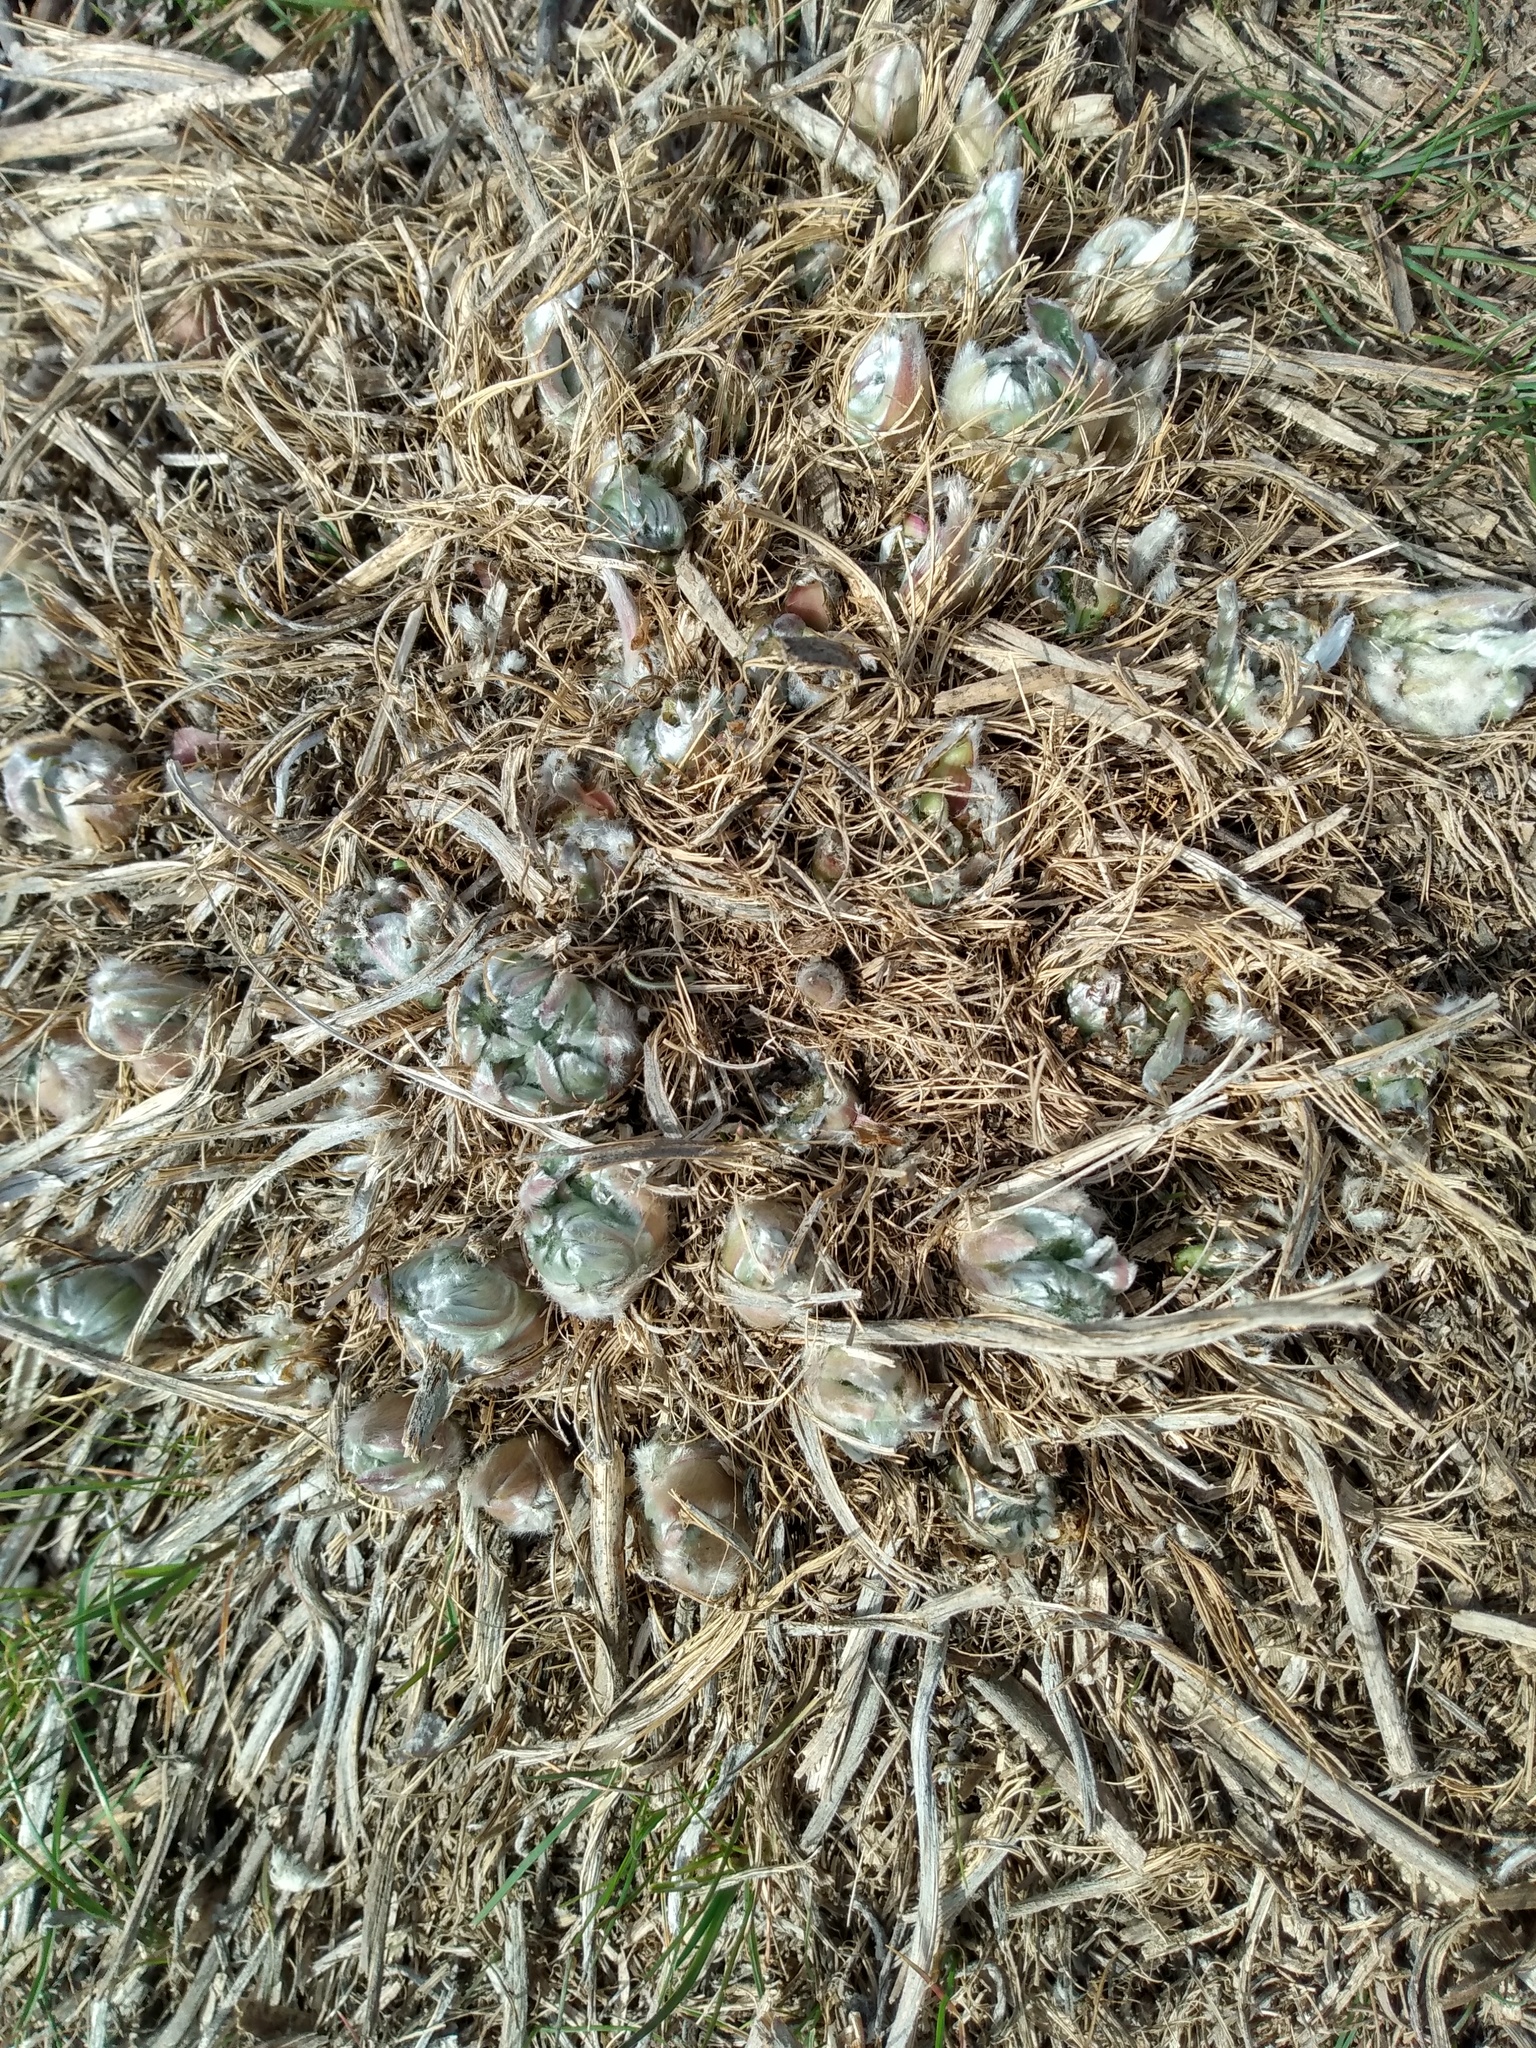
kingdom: Plantae
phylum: Tracheophyta
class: Magnoliopsida
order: Asterales
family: Asteraceae
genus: Wyethia
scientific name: Wyethia sagittata
